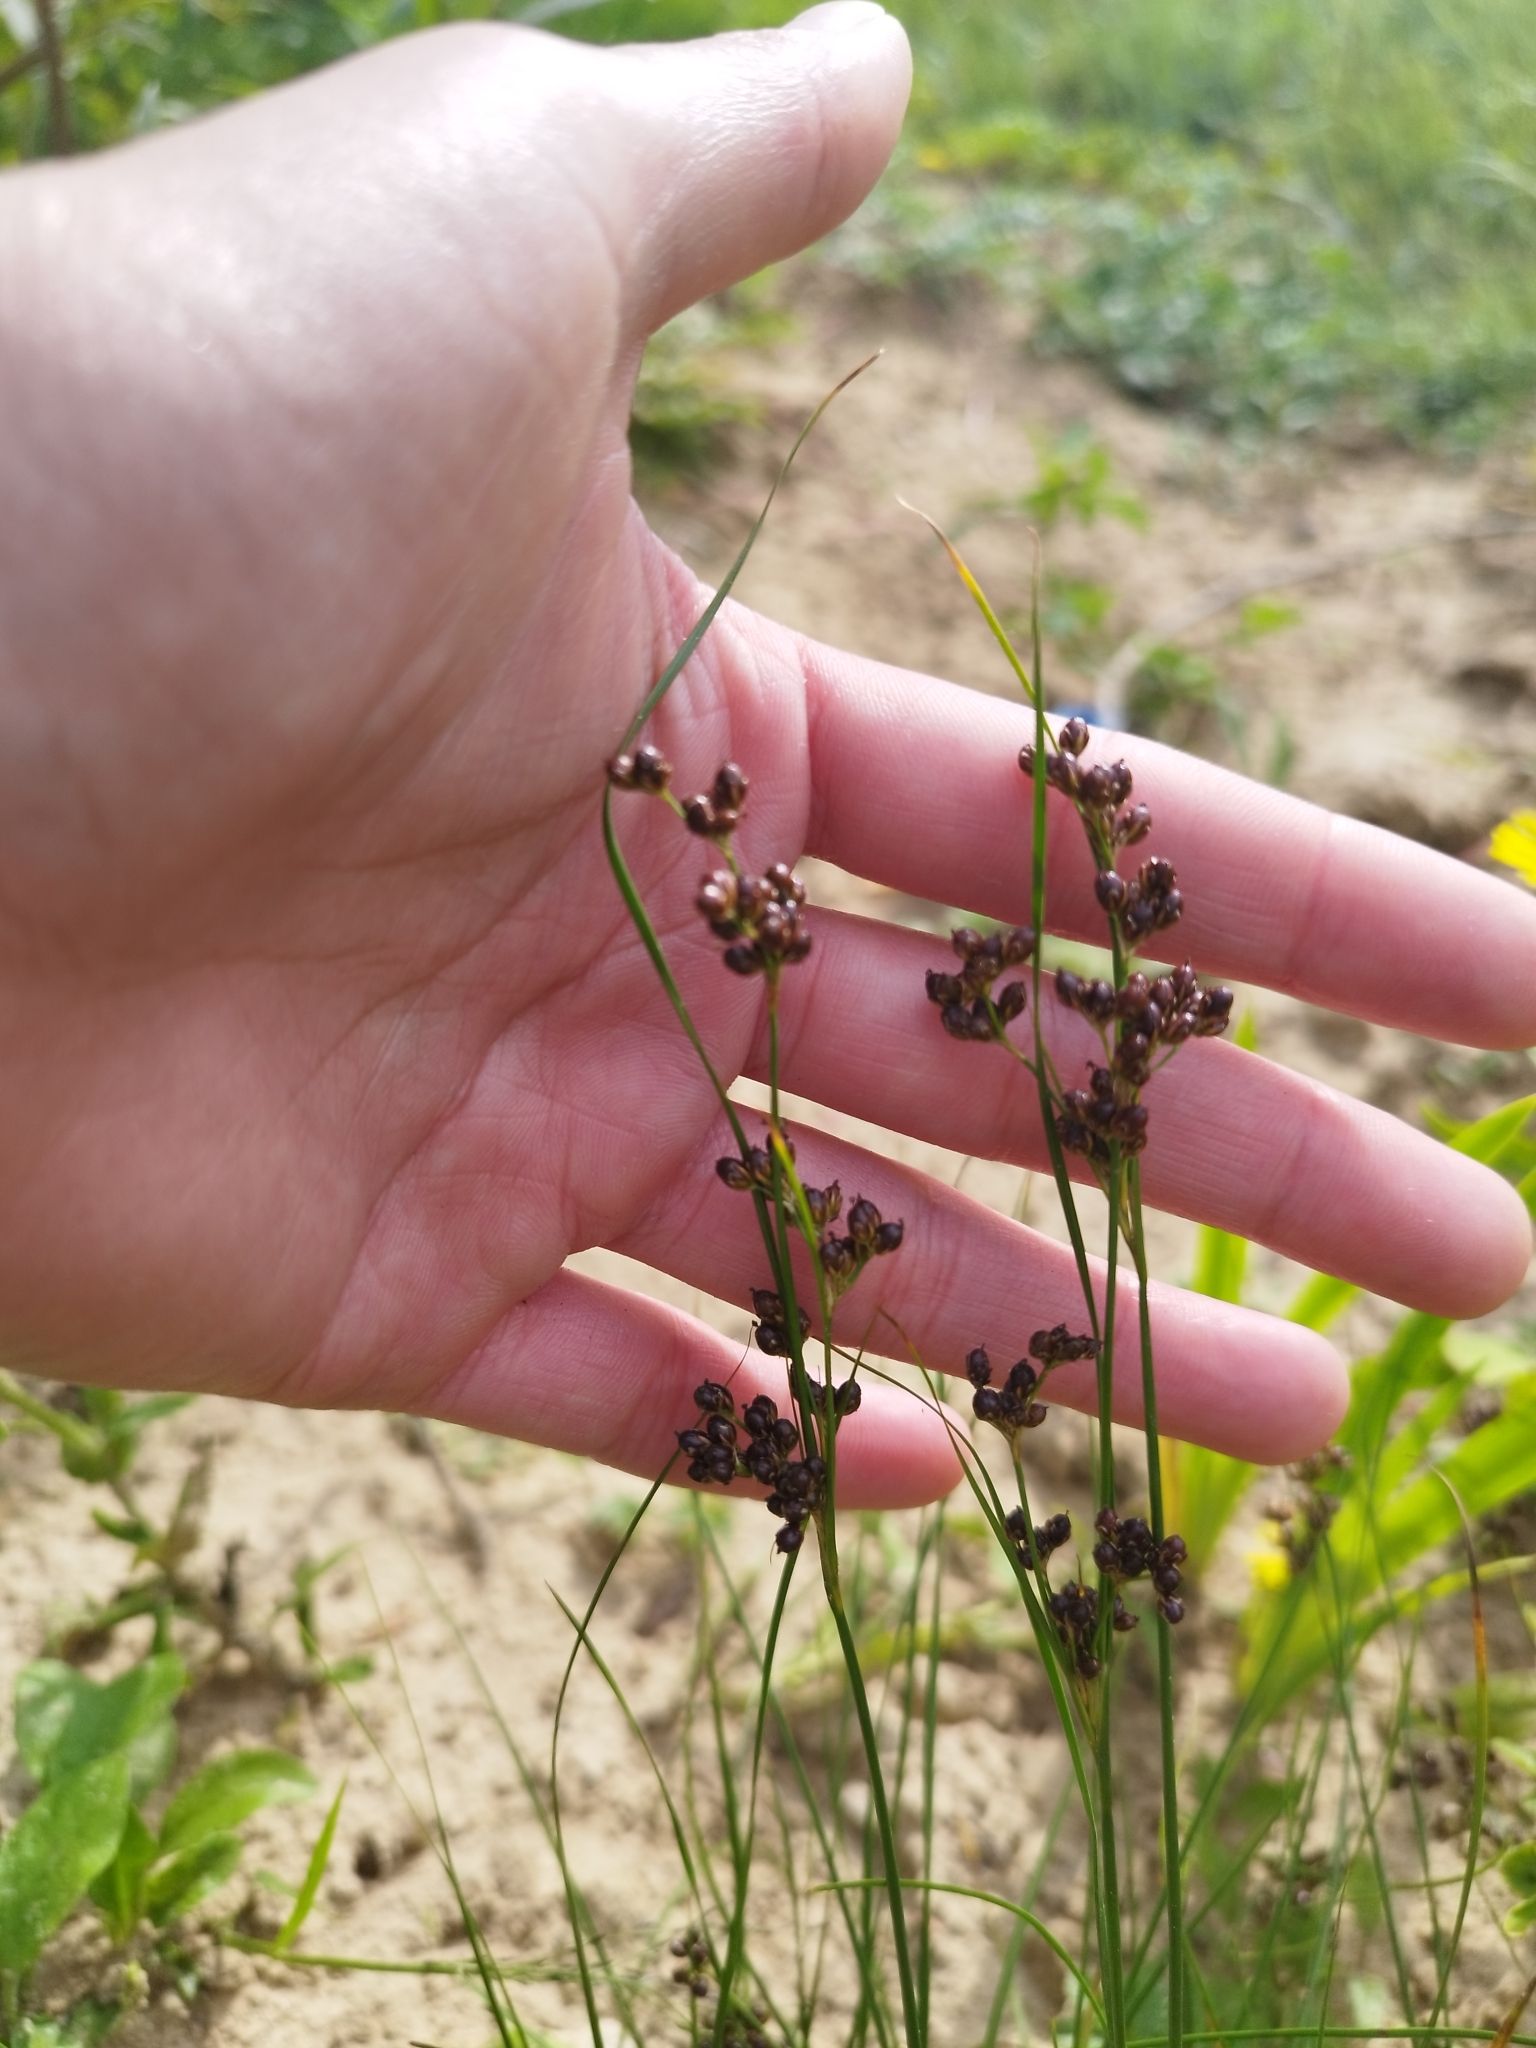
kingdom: Plantae
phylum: Tracheophyta
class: Liliopsida
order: Poales
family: Juncaceae
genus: Juncus
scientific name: Juncus compressus
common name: Round-fruited rush
